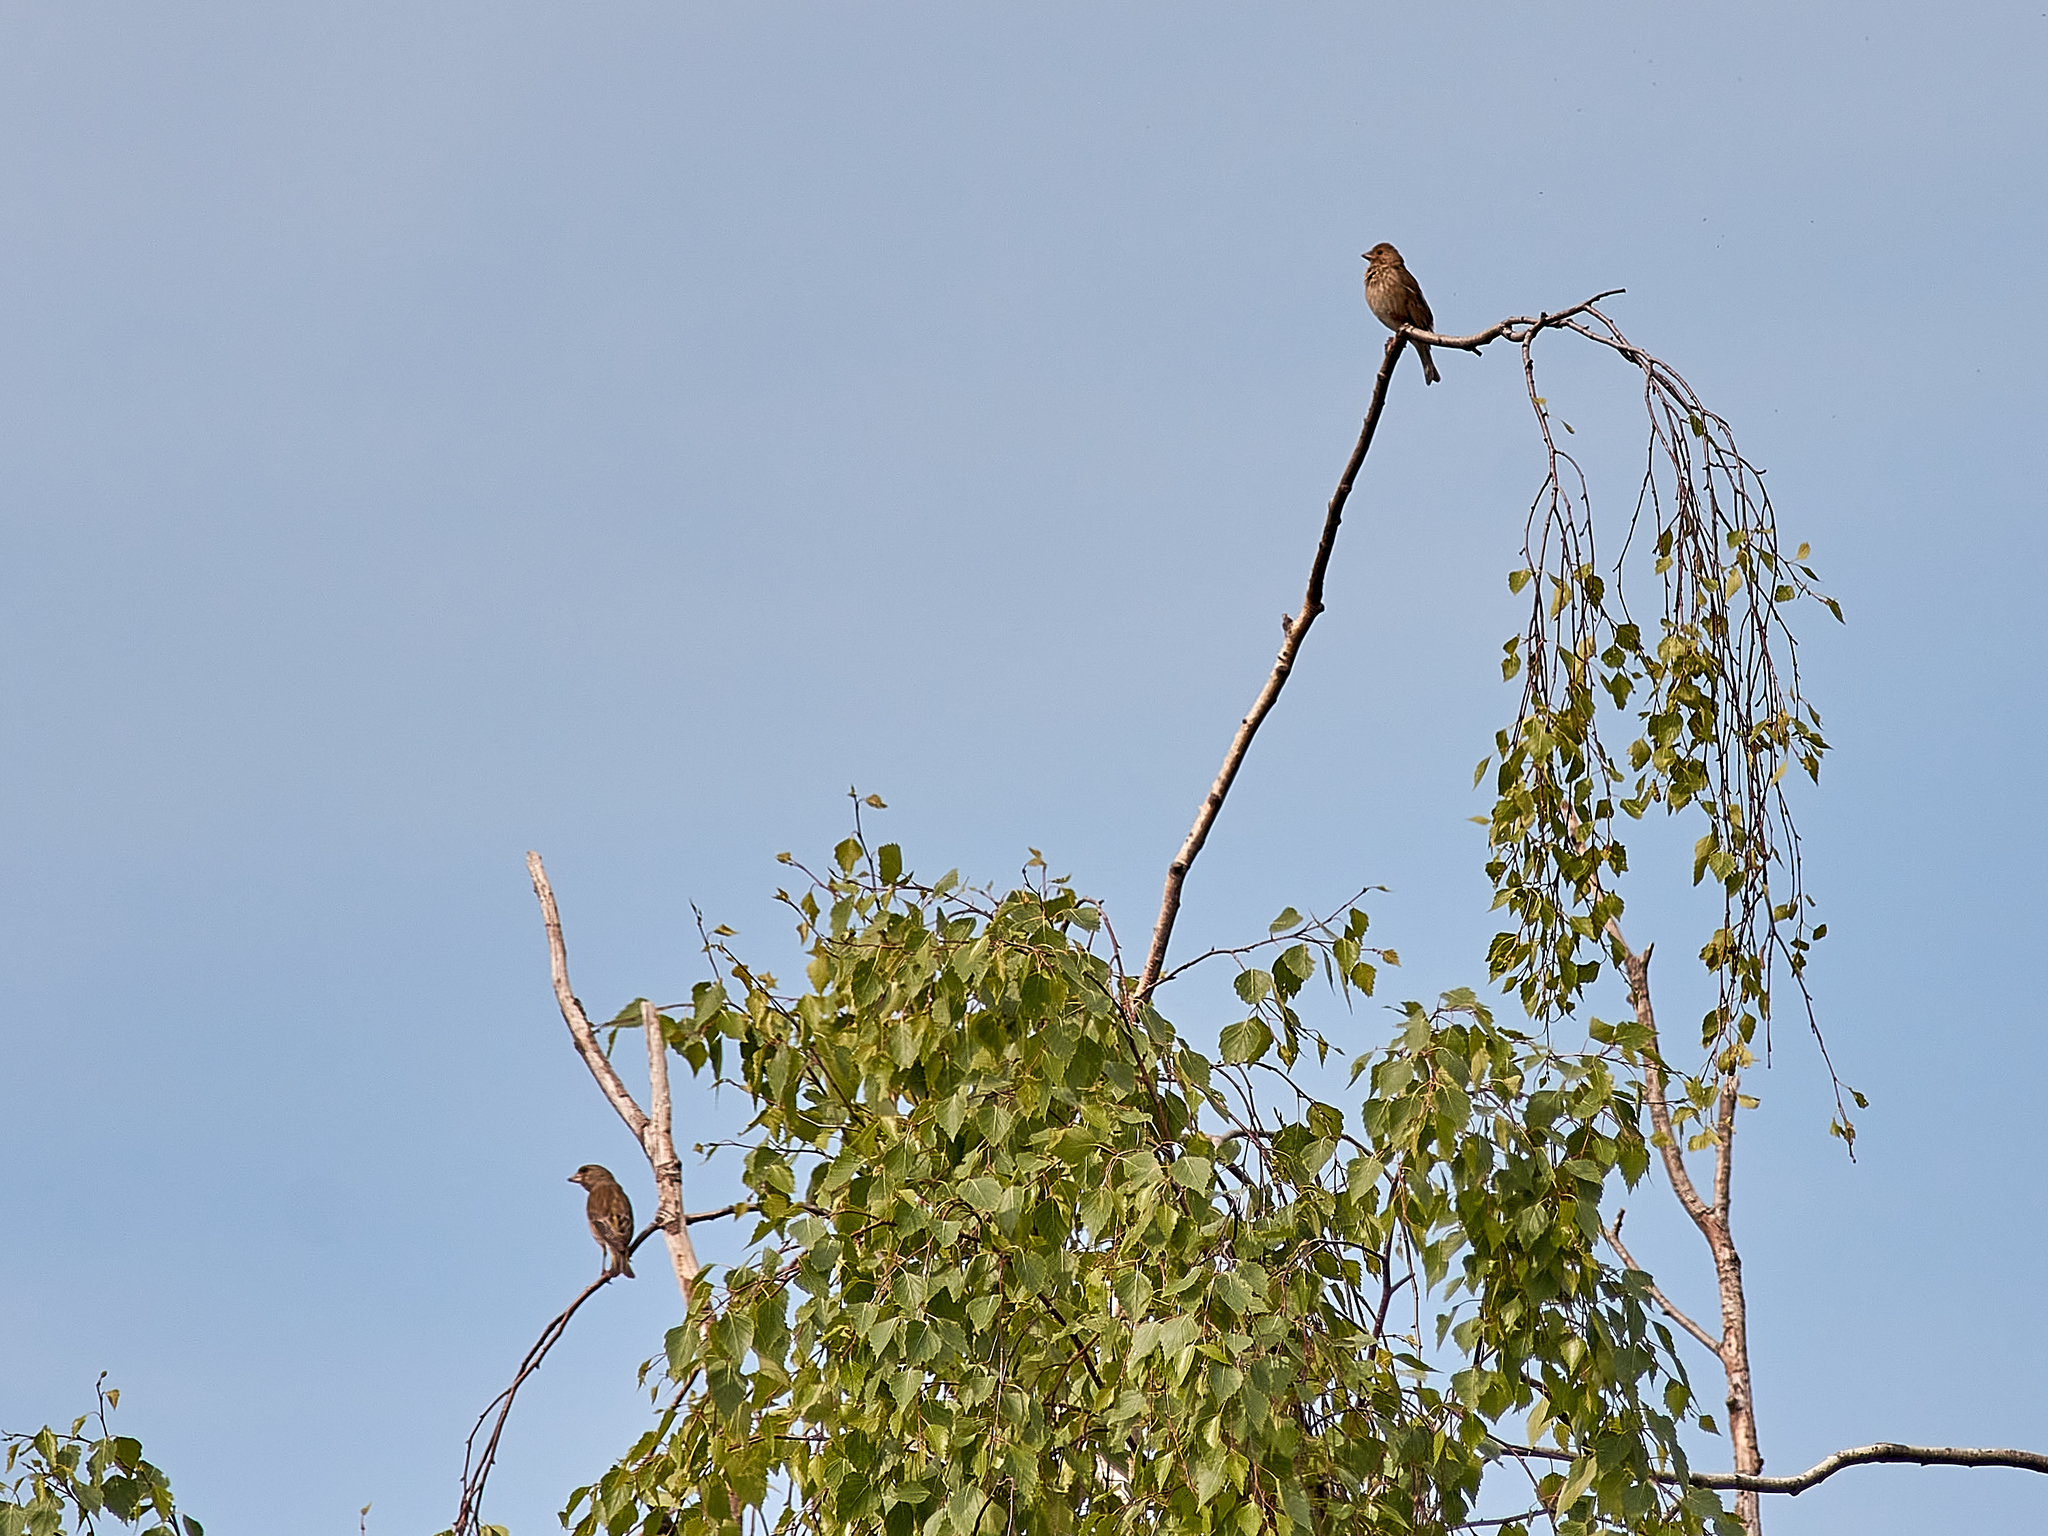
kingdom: Plantae
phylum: Tracheophyta
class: Liliopsida
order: Poales
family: Poaceae
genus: Chloris
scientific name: Chloris chloris
